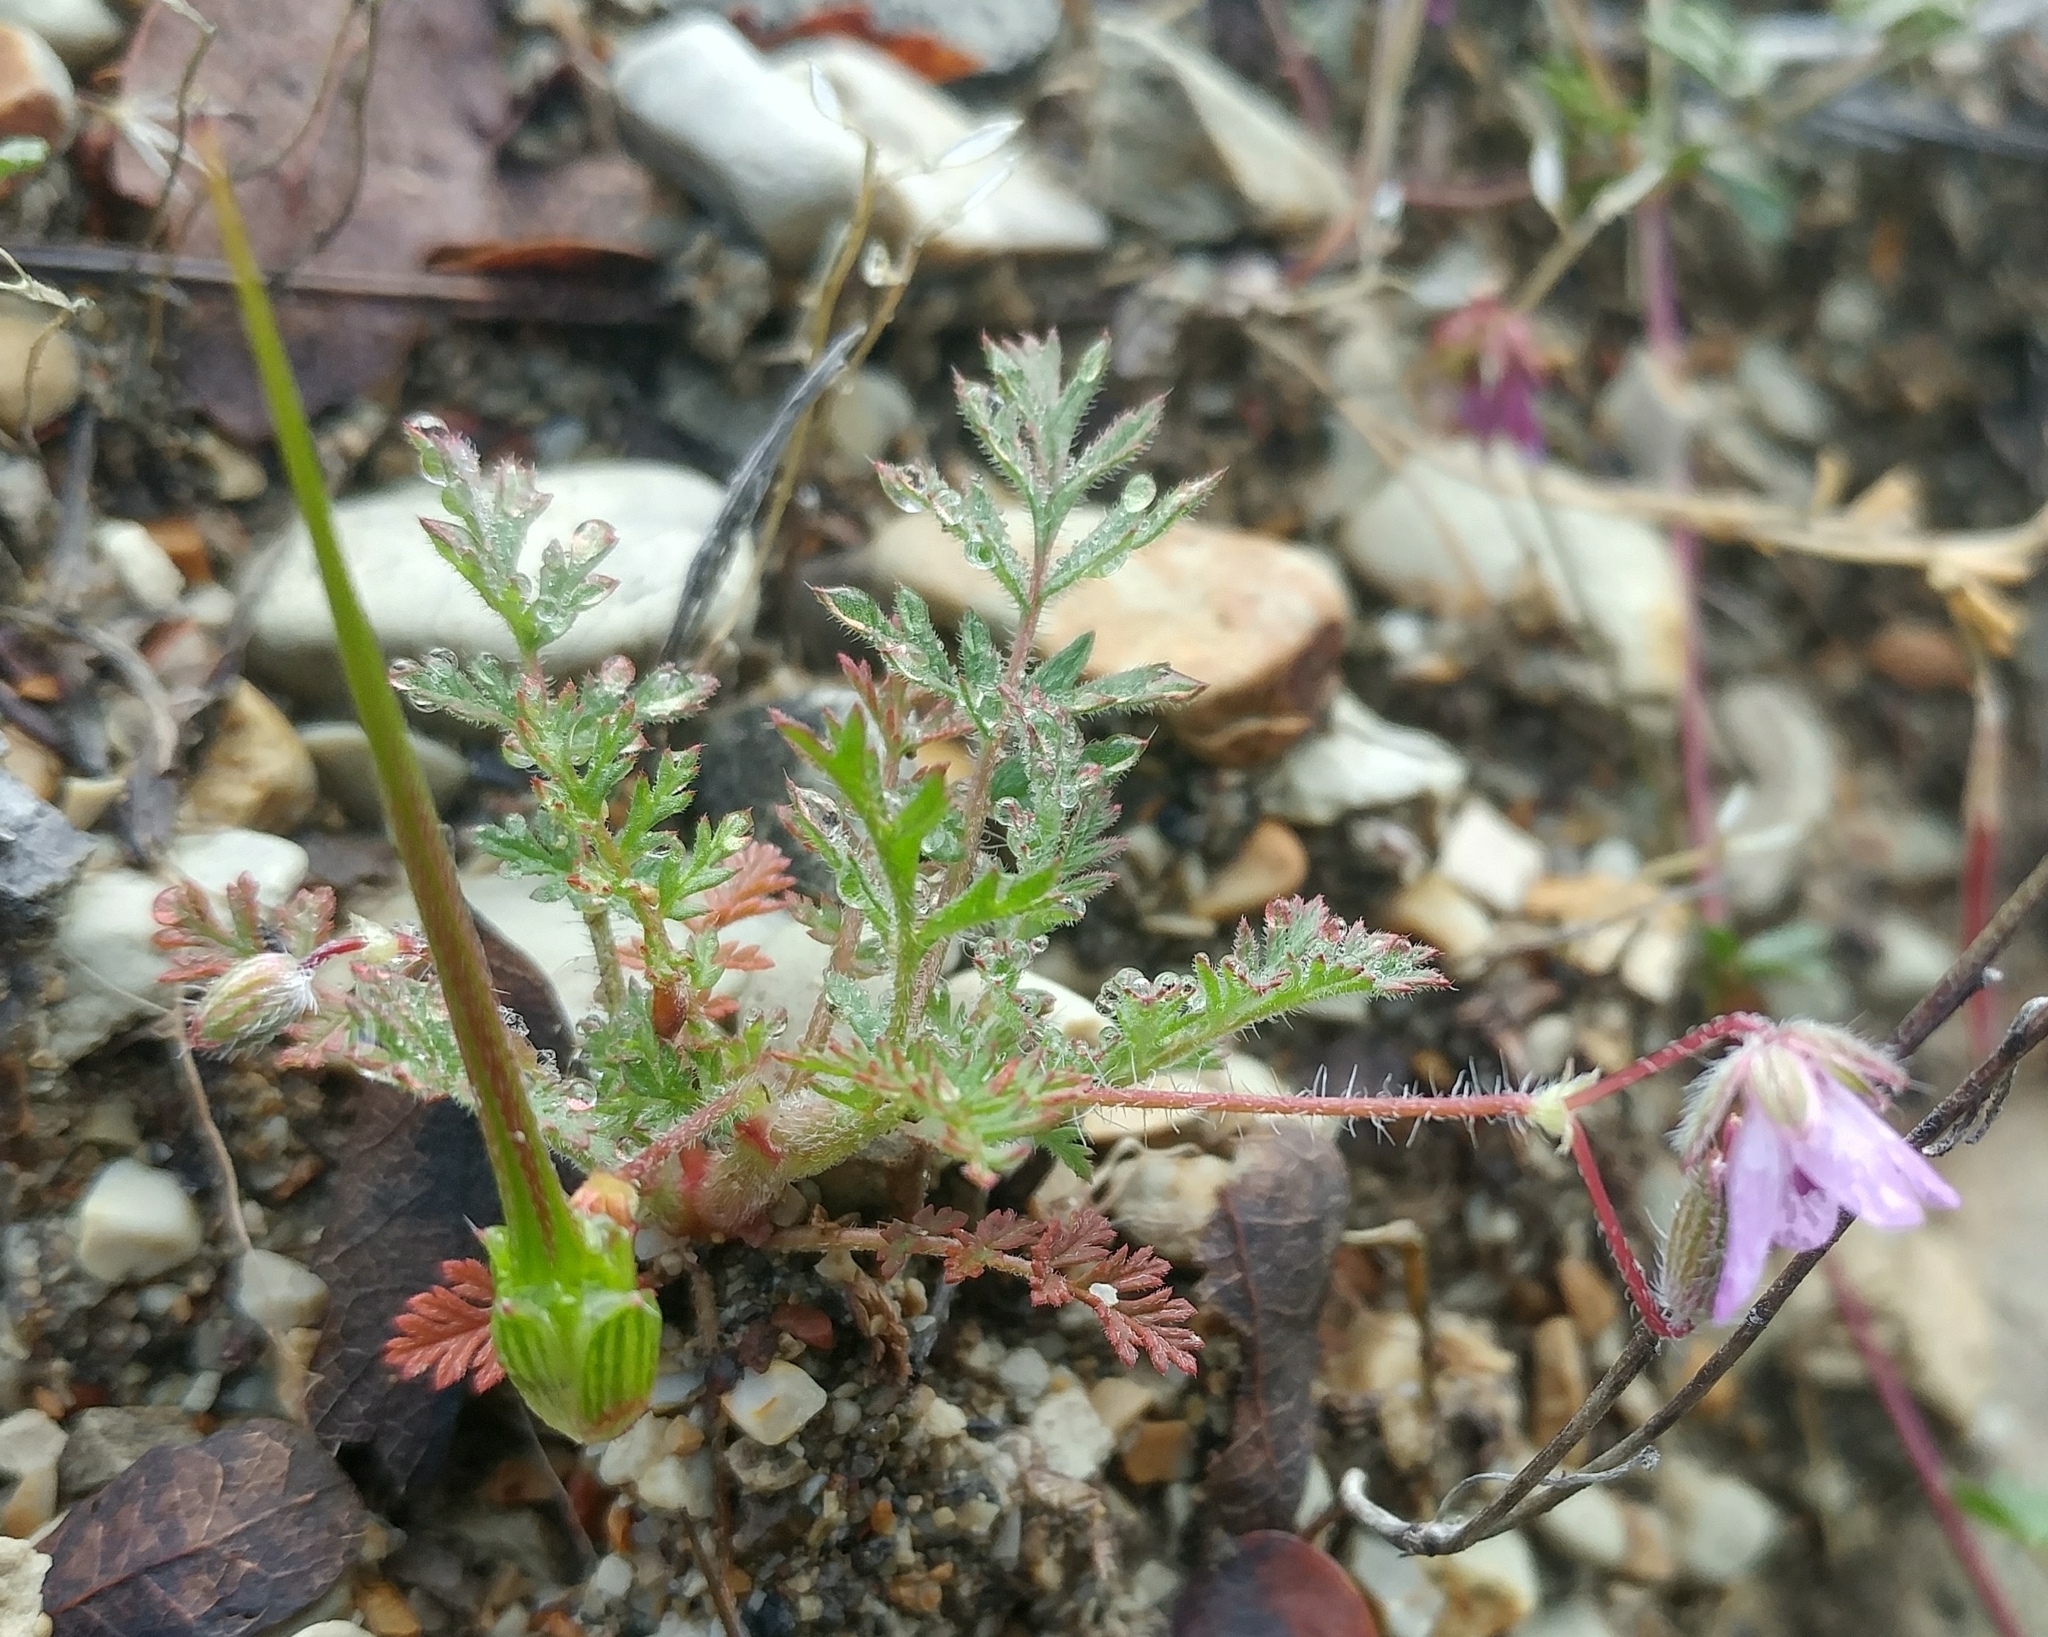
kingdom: Plantae
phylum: Tracheophyta
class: Magnoliopsida
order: Geraniales
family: Geraniaceae
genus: Erodium
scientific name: Erodium cicutarium
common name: Common stork's-bill
